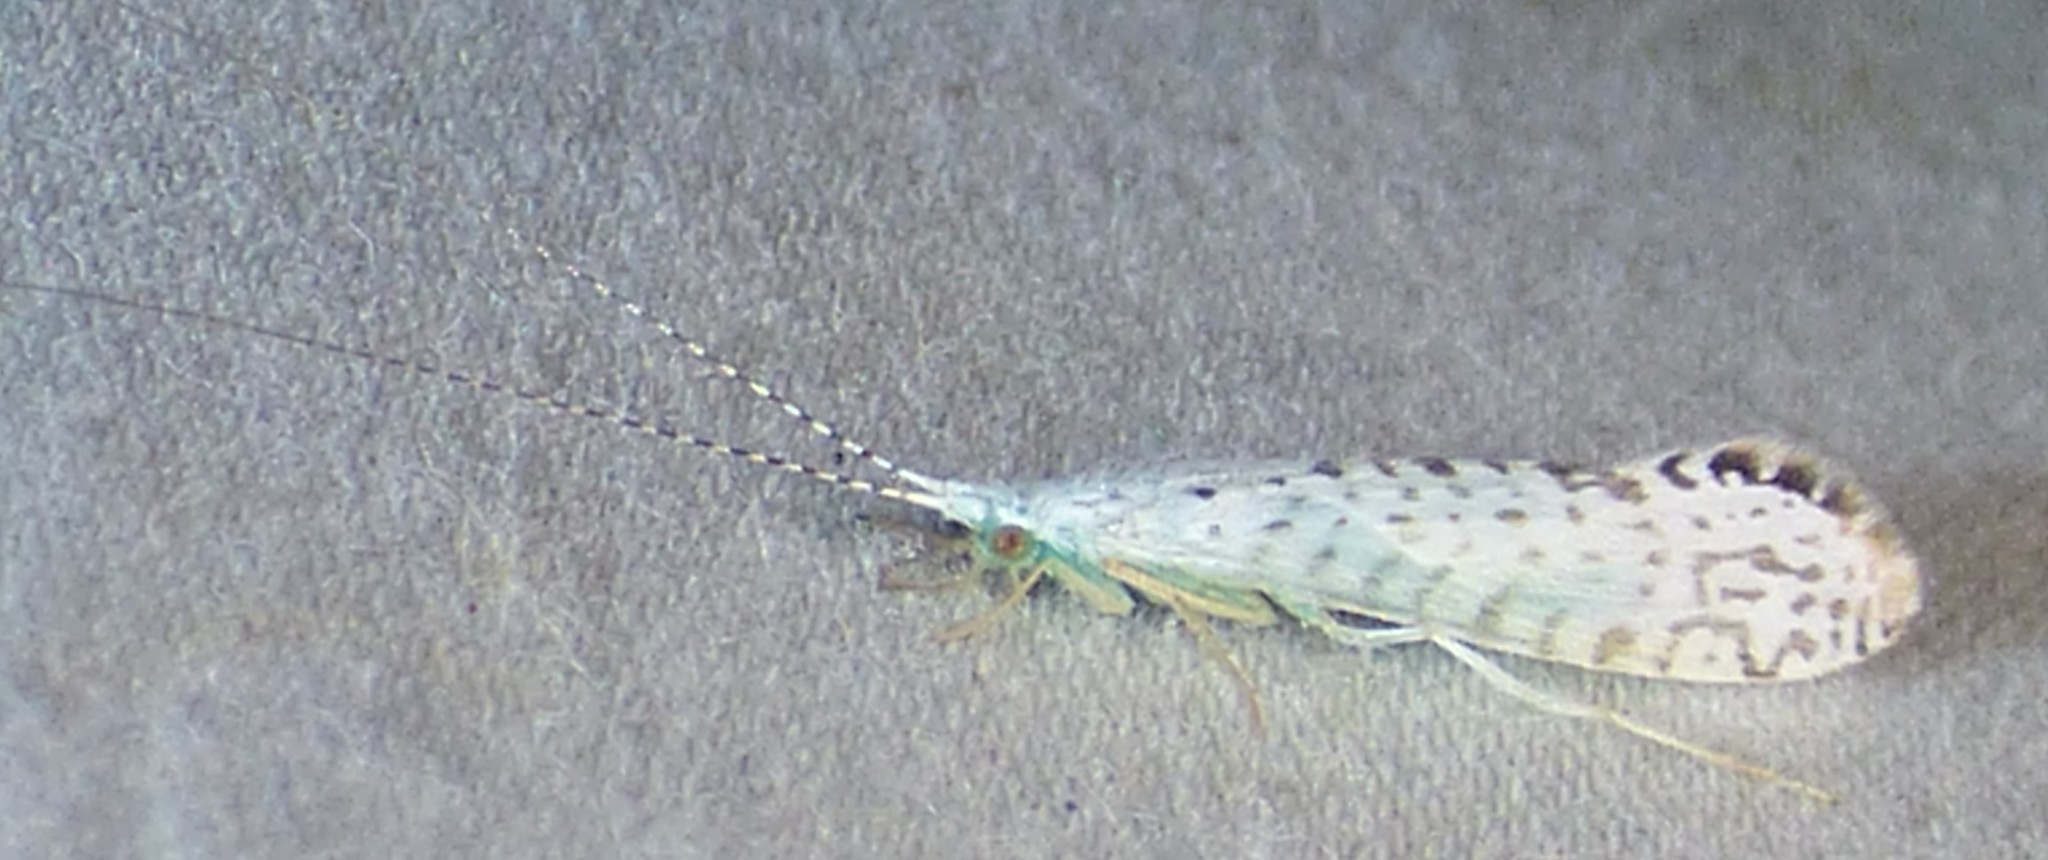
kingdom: Animalia
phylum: Arthropoda
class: Insecta
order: Trichoptera
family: Leptoceridae
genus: Nectopsyche
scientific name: Nectopsyche candida
